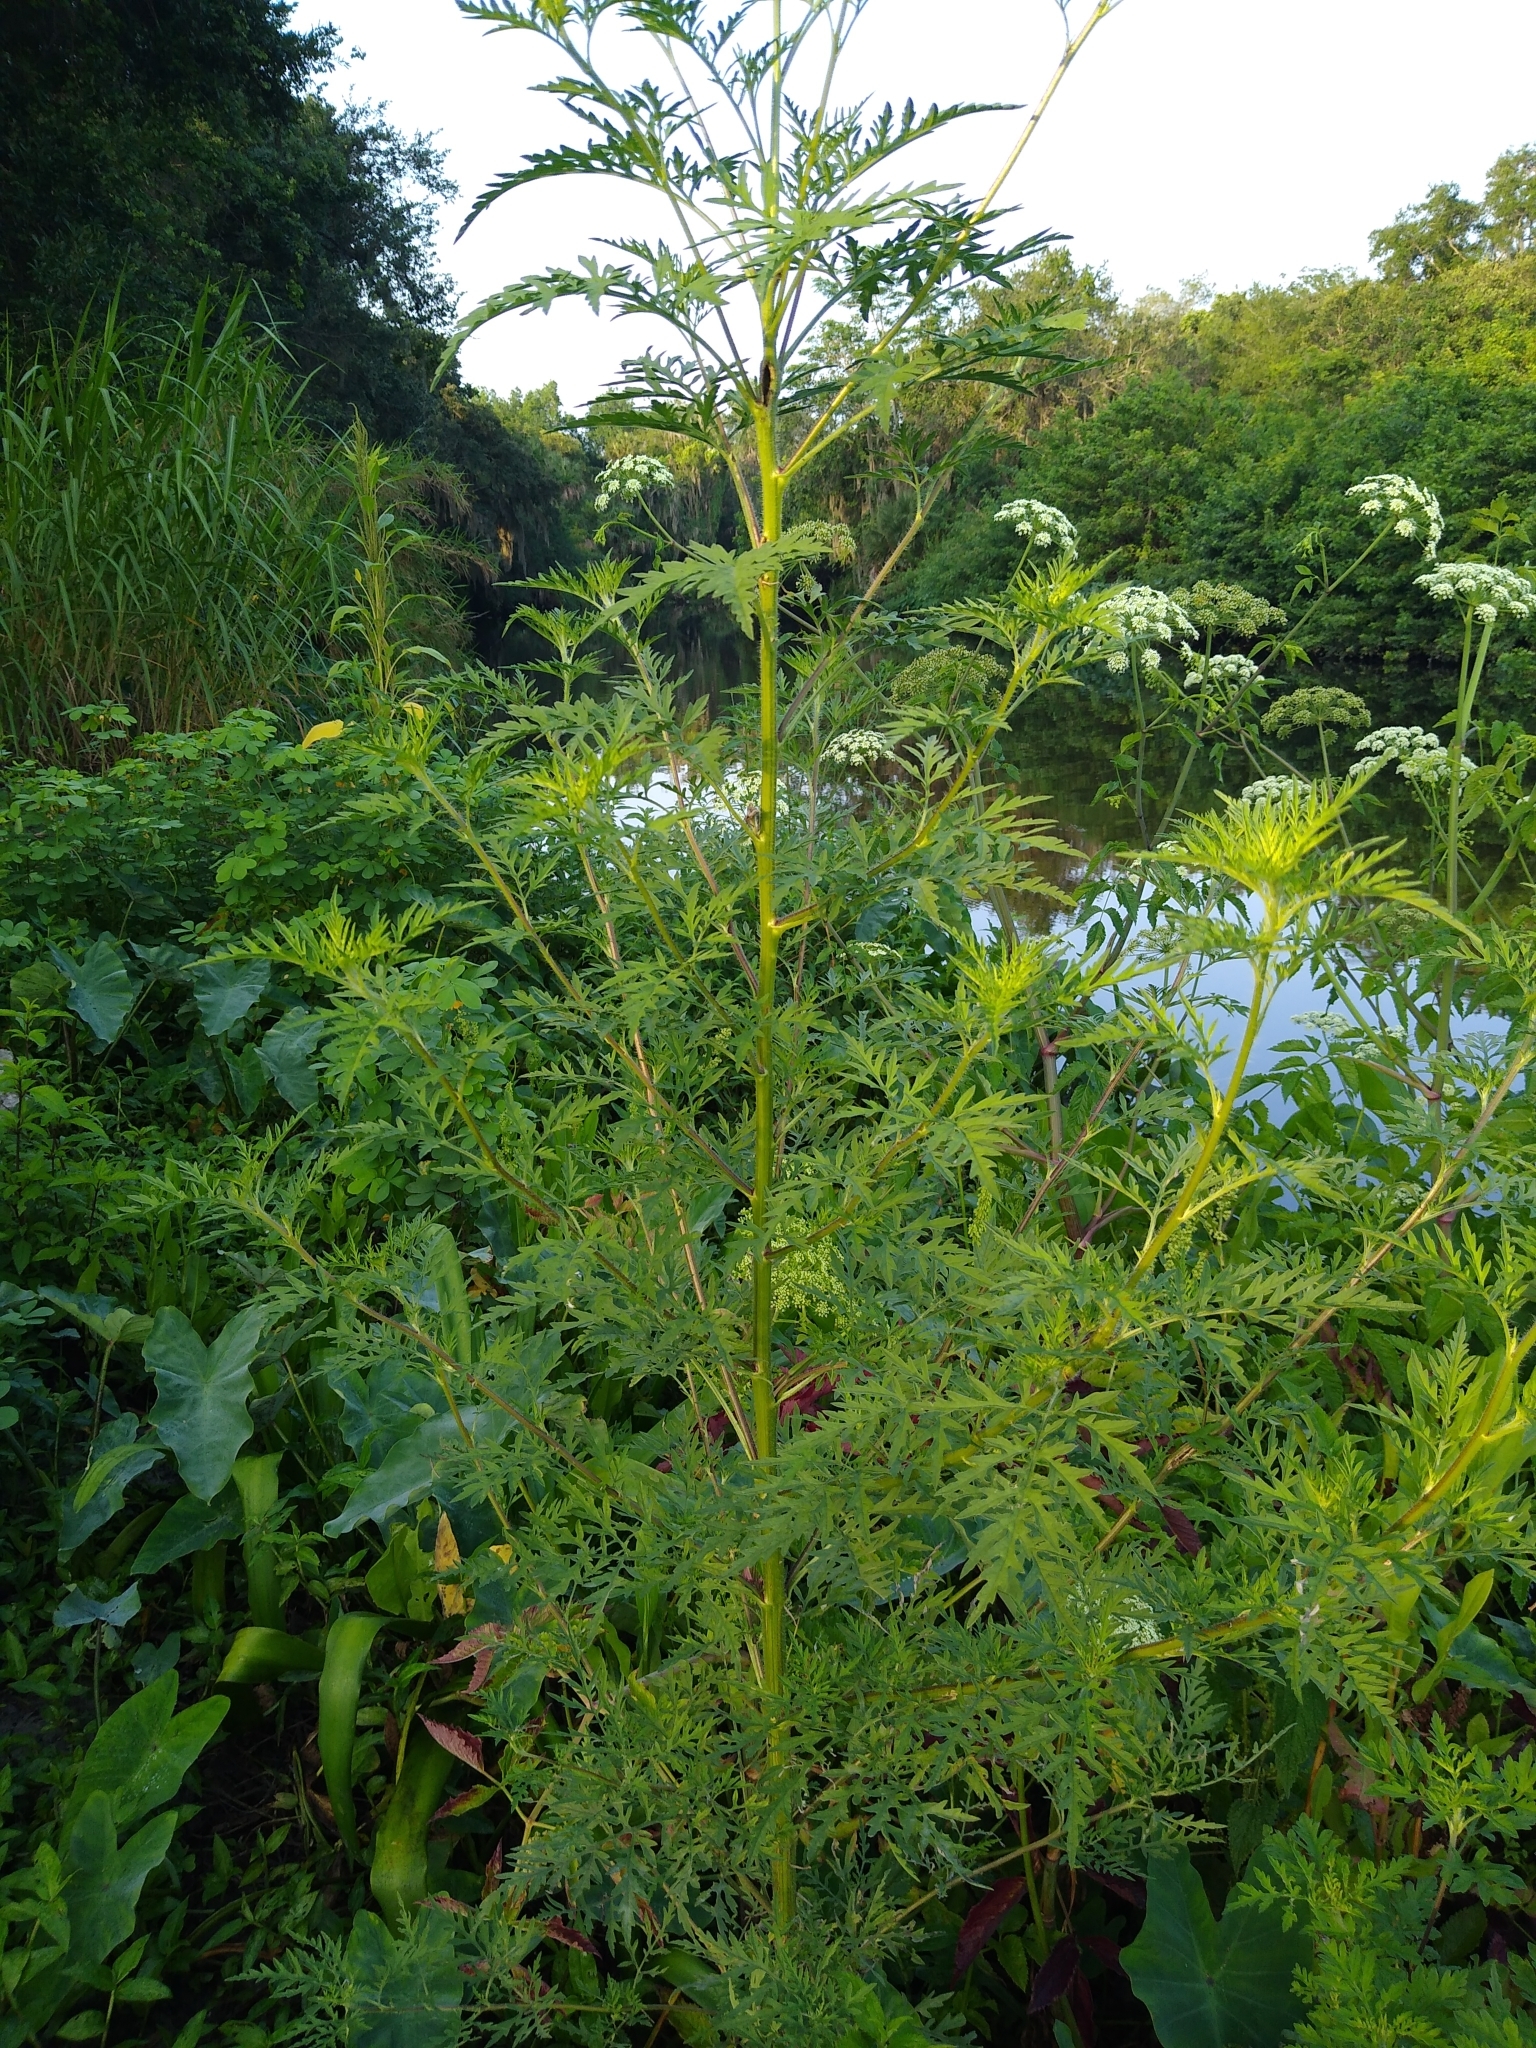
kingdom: Plantae
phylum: Tracheophyta
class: Magnoliopsida
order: Asterales
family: Asteraceae
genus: Ambrosia
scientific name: Ambrosia artemisiifolia
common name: Annual ragweed
